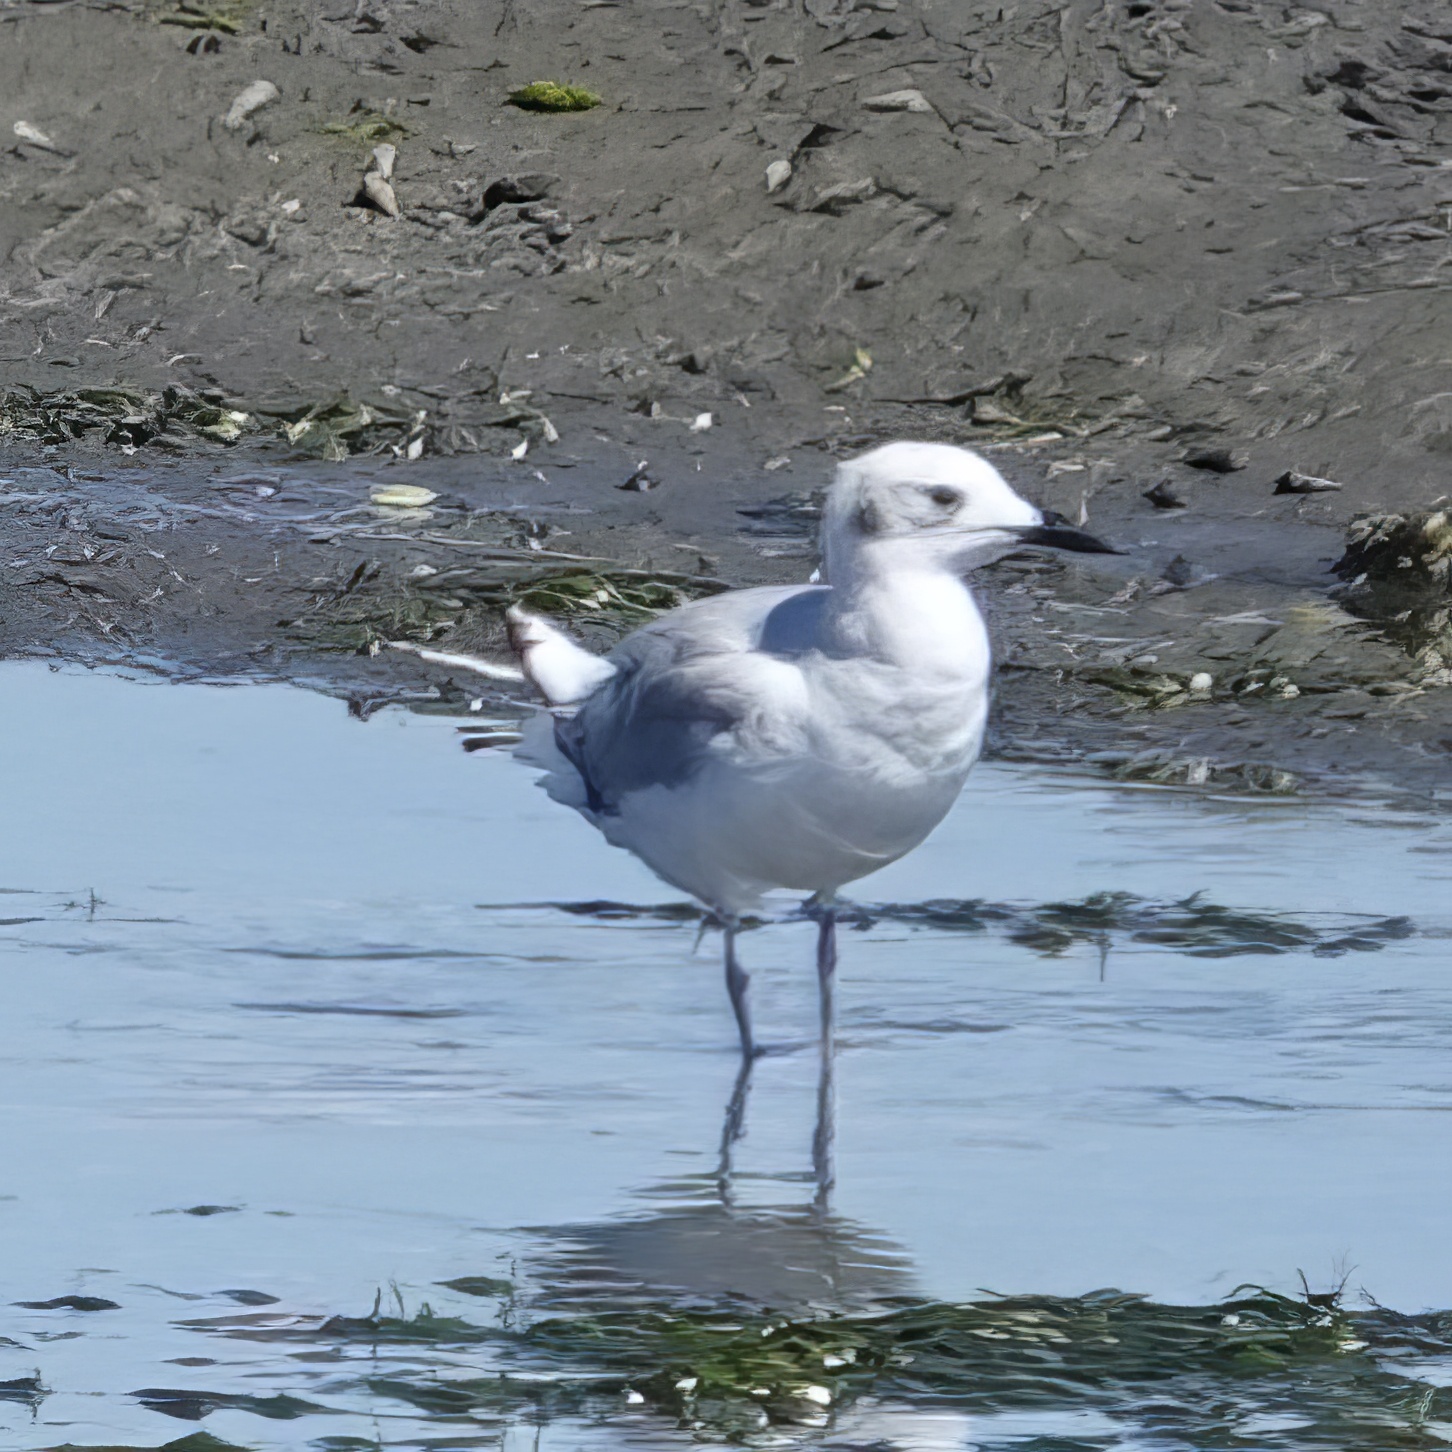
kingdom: Animalia
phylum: Chordata
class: Aves
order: Charadriiformes
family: Laridae
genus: Chroicocephalus
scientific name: Chroicocephalus philadelphia
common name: Bonaparte's gull
